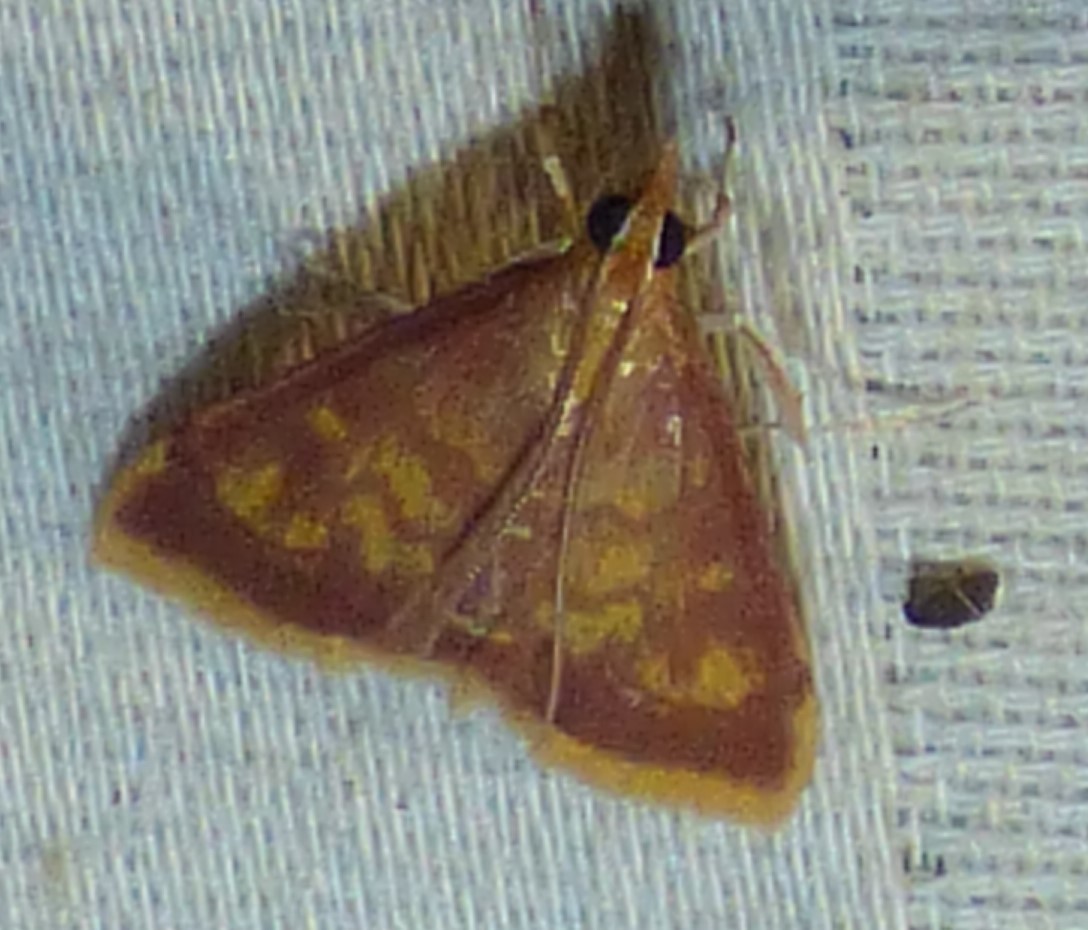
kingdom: Animalia
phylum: Arthropoda
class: Insecta
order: Lepidoptera
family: Crambidae
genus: Pyrausta
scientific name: Pyrausta acrionalis
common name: Mint-loving pyrausta moth
